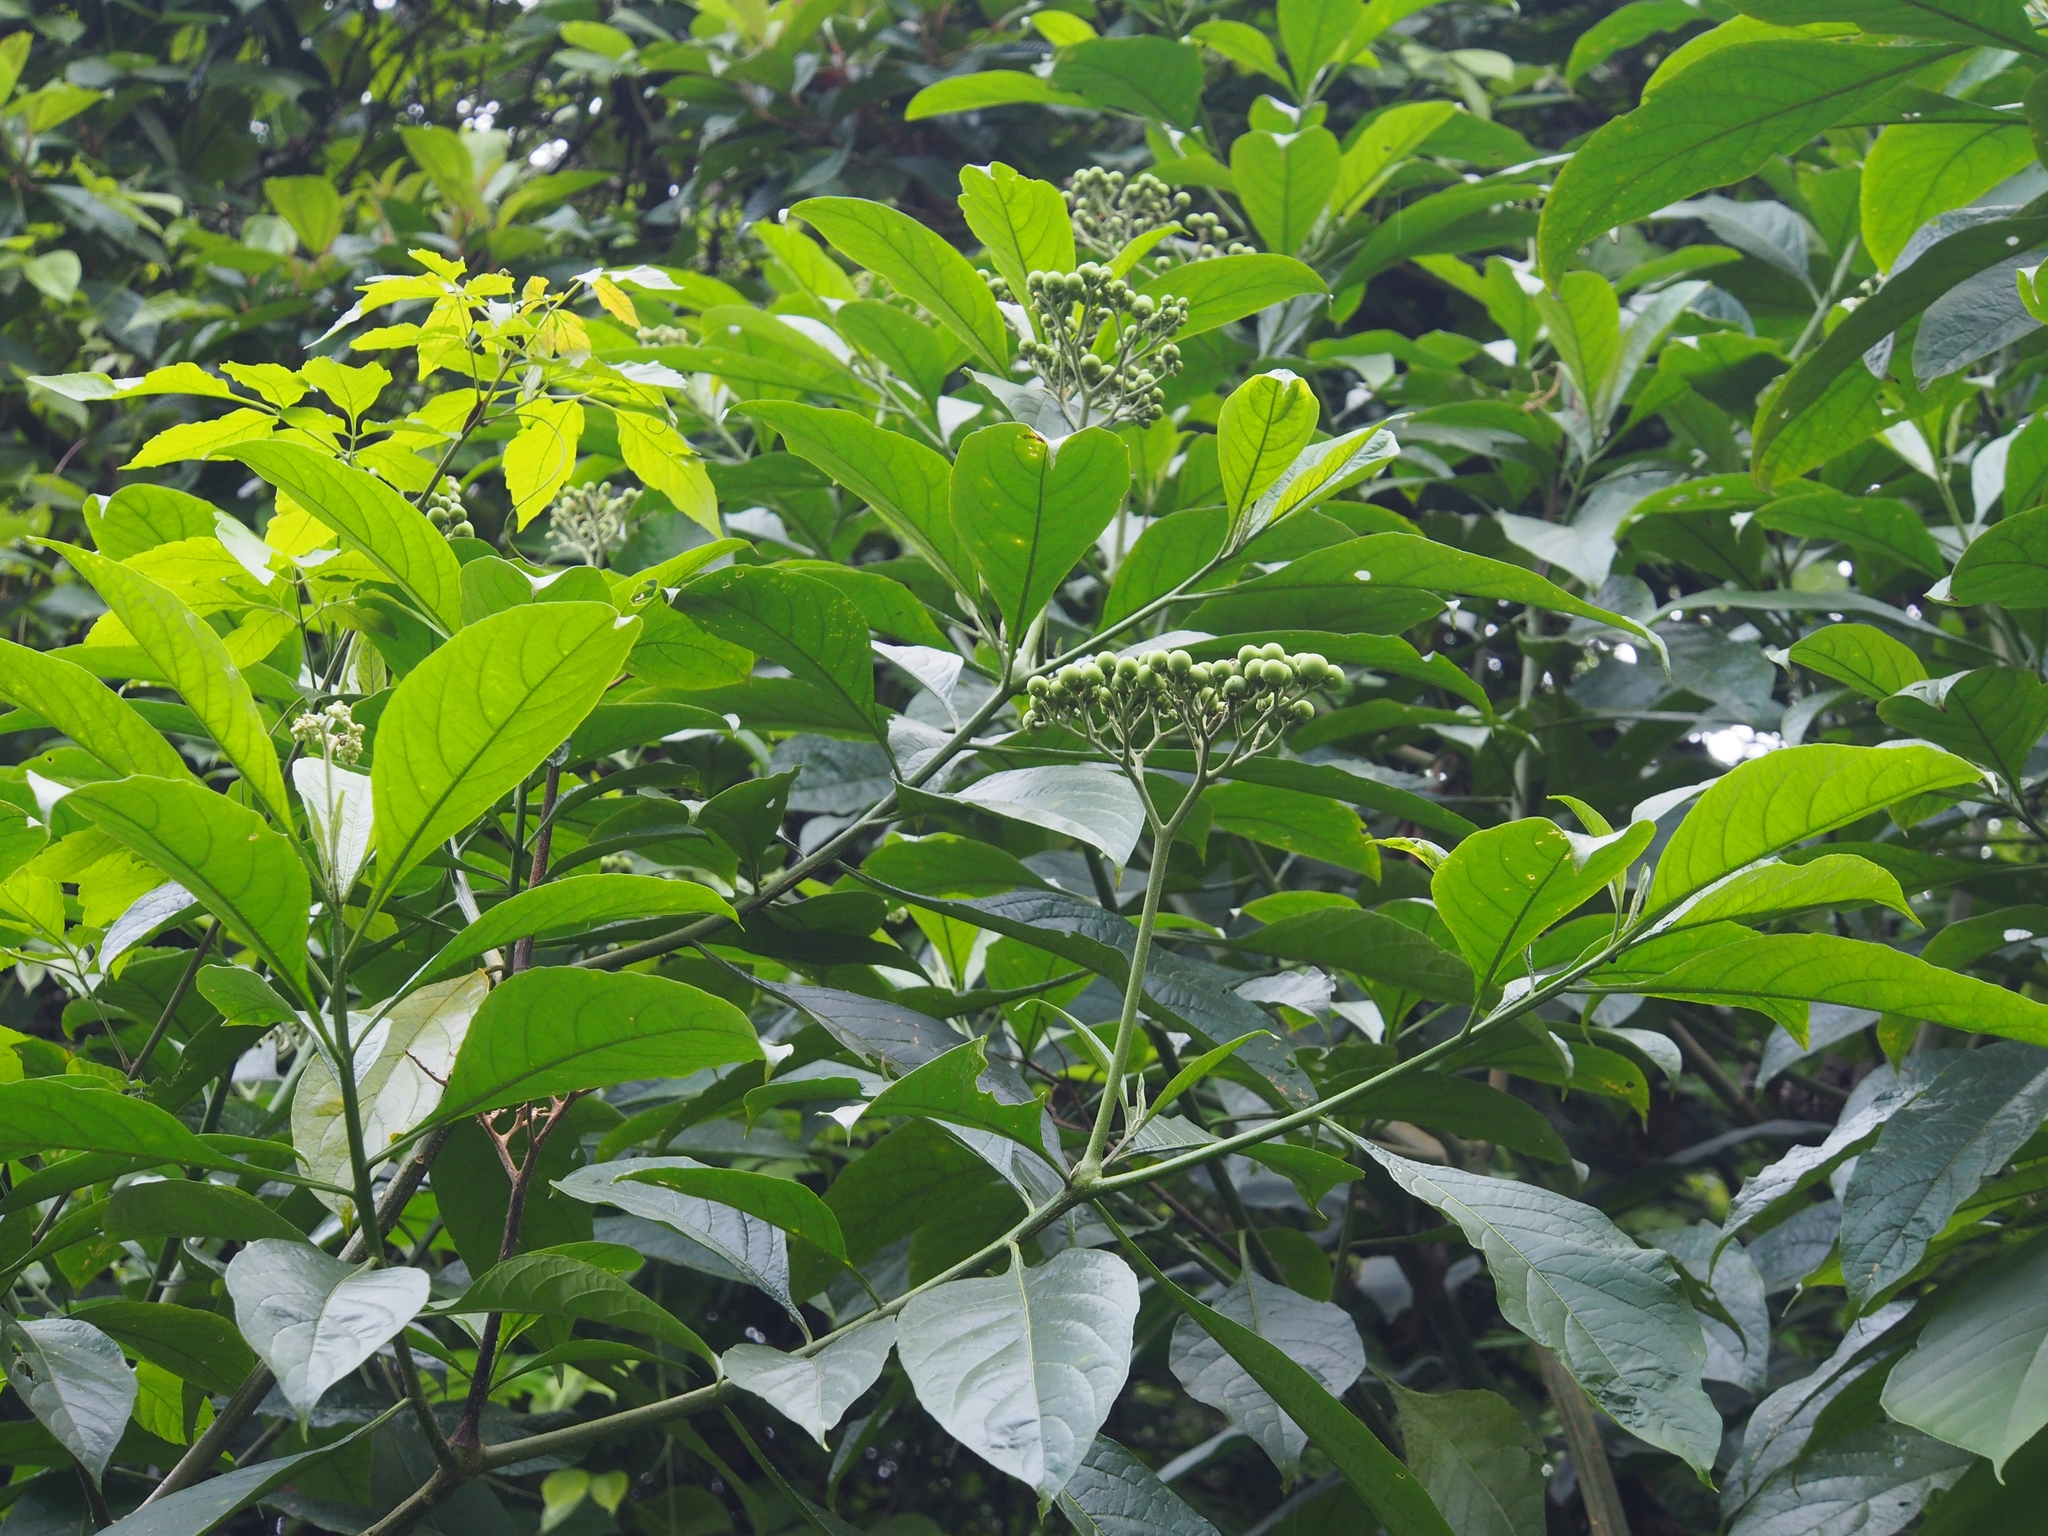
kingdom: Plantae
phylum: Tracheophyta
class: Magnoliopsida
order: Solanales
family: Solanaceae
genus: Solanum
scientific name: Solanum umbellatum
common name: Nightshade
